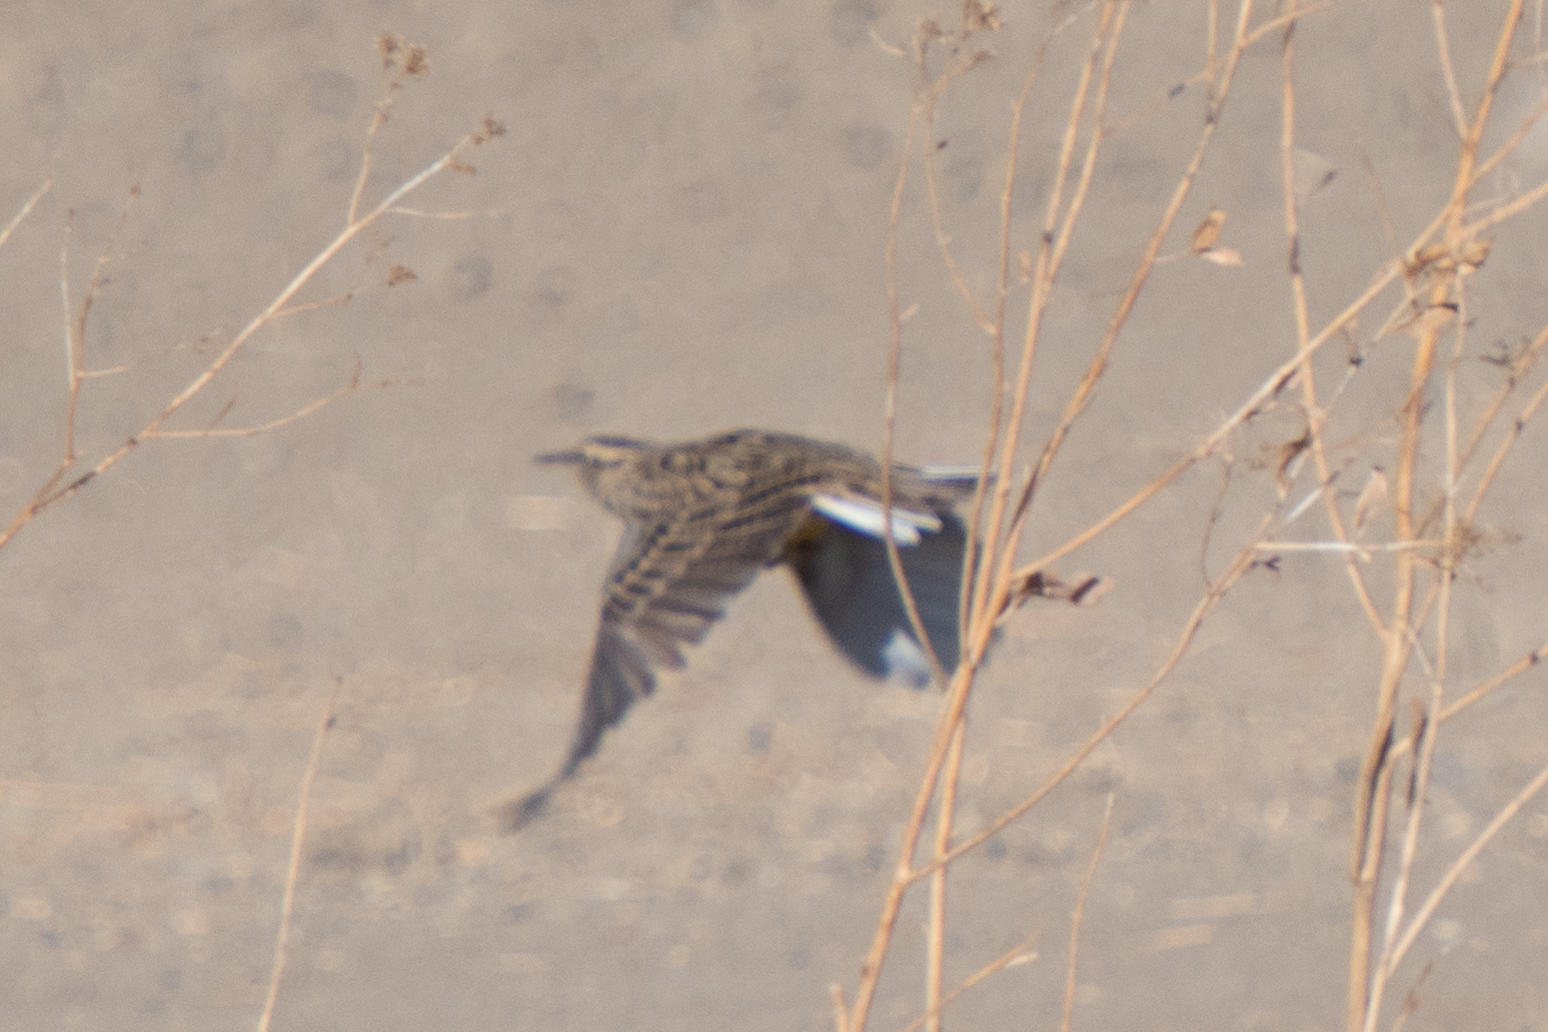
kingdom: Animalia
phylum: Chordata
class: Aves
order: Passeriformes
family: Icteridae
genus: Sturnella
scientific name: Sturnella neglecta
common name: Western meadowlark
